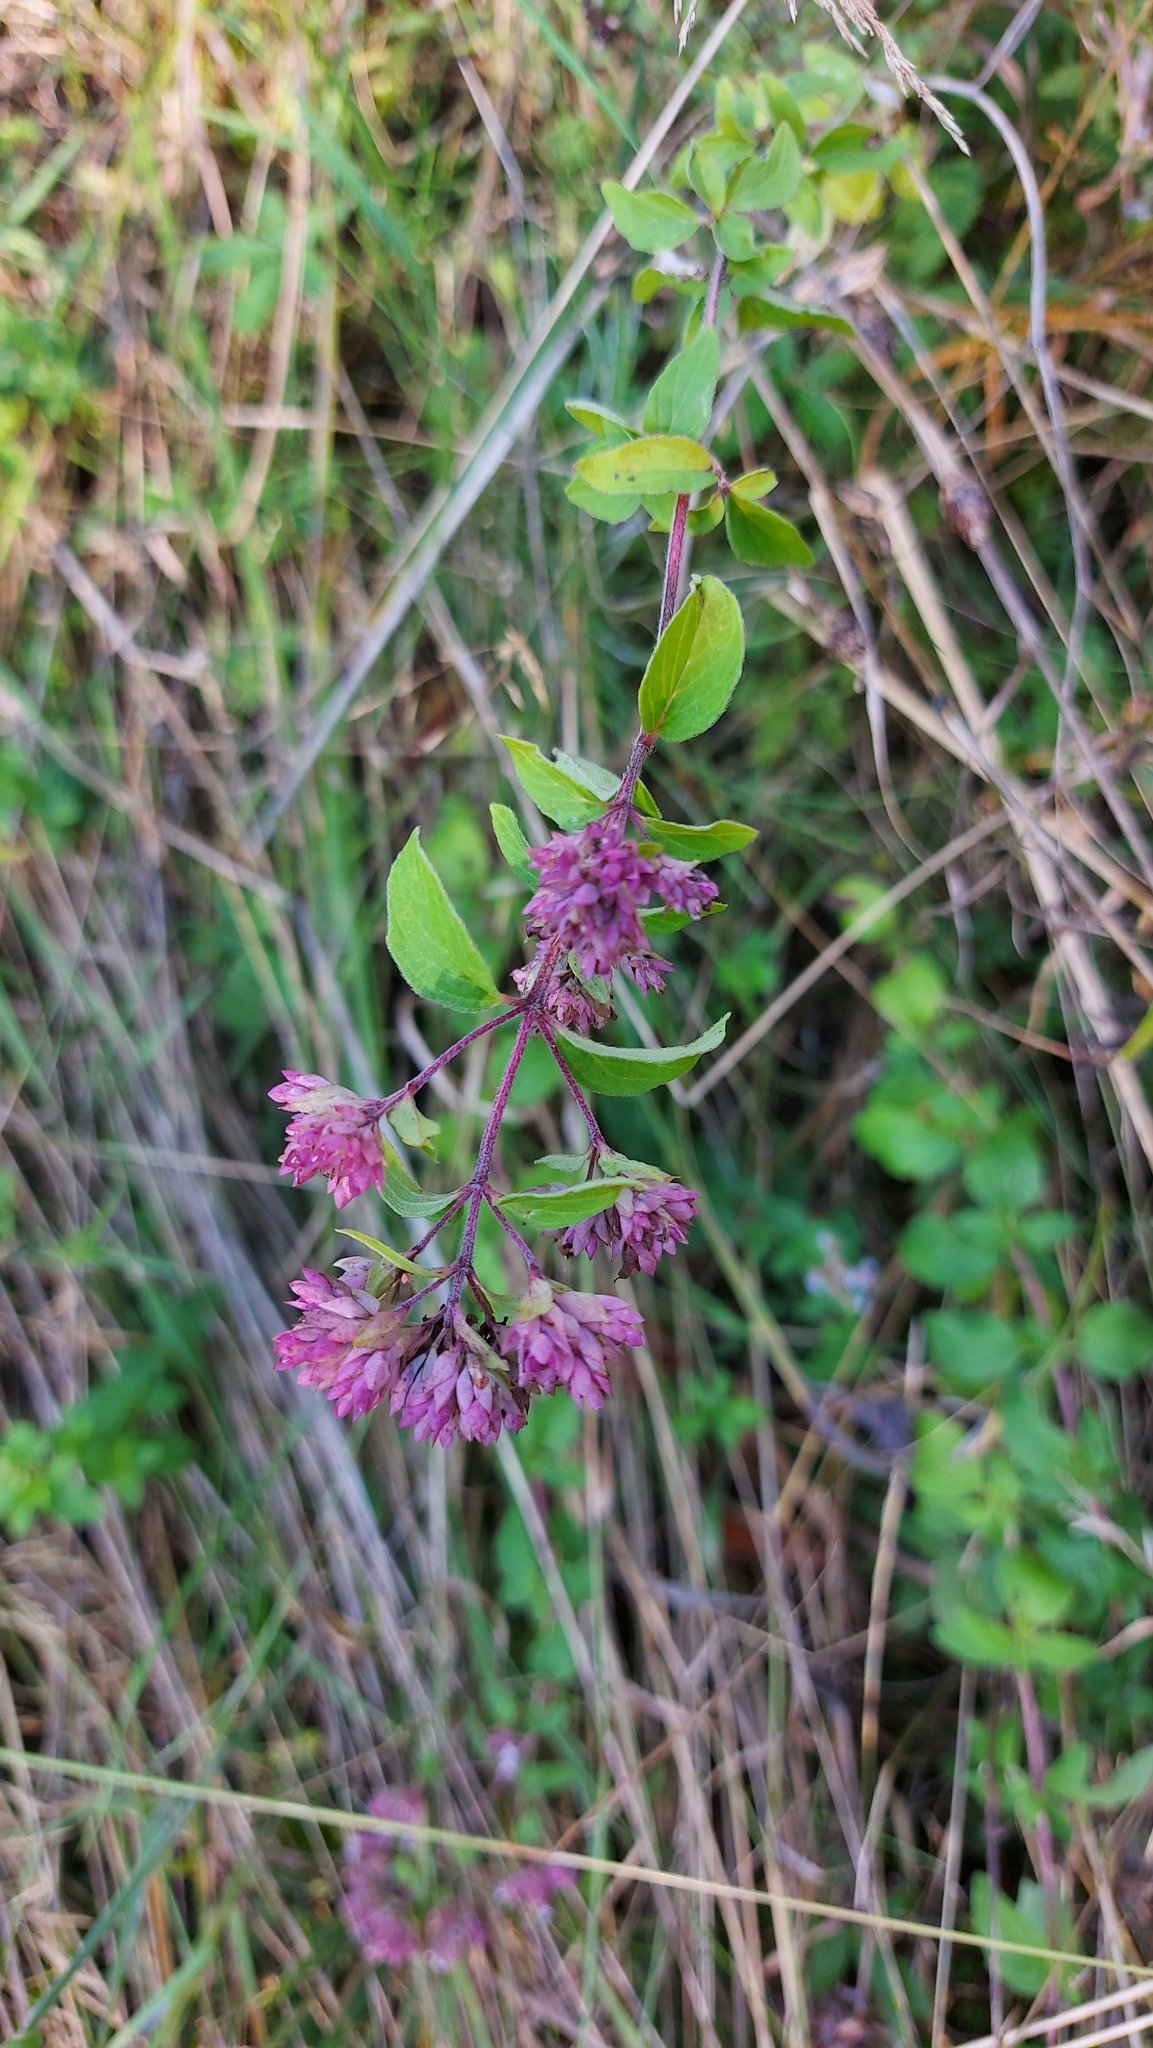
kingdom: Plantae
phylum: Tracheophyta
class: Magnoliopsida
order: Lamiales
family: Lamiaceae
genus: Origanum
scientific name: Origanum vulgare
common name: Wild marjoram
